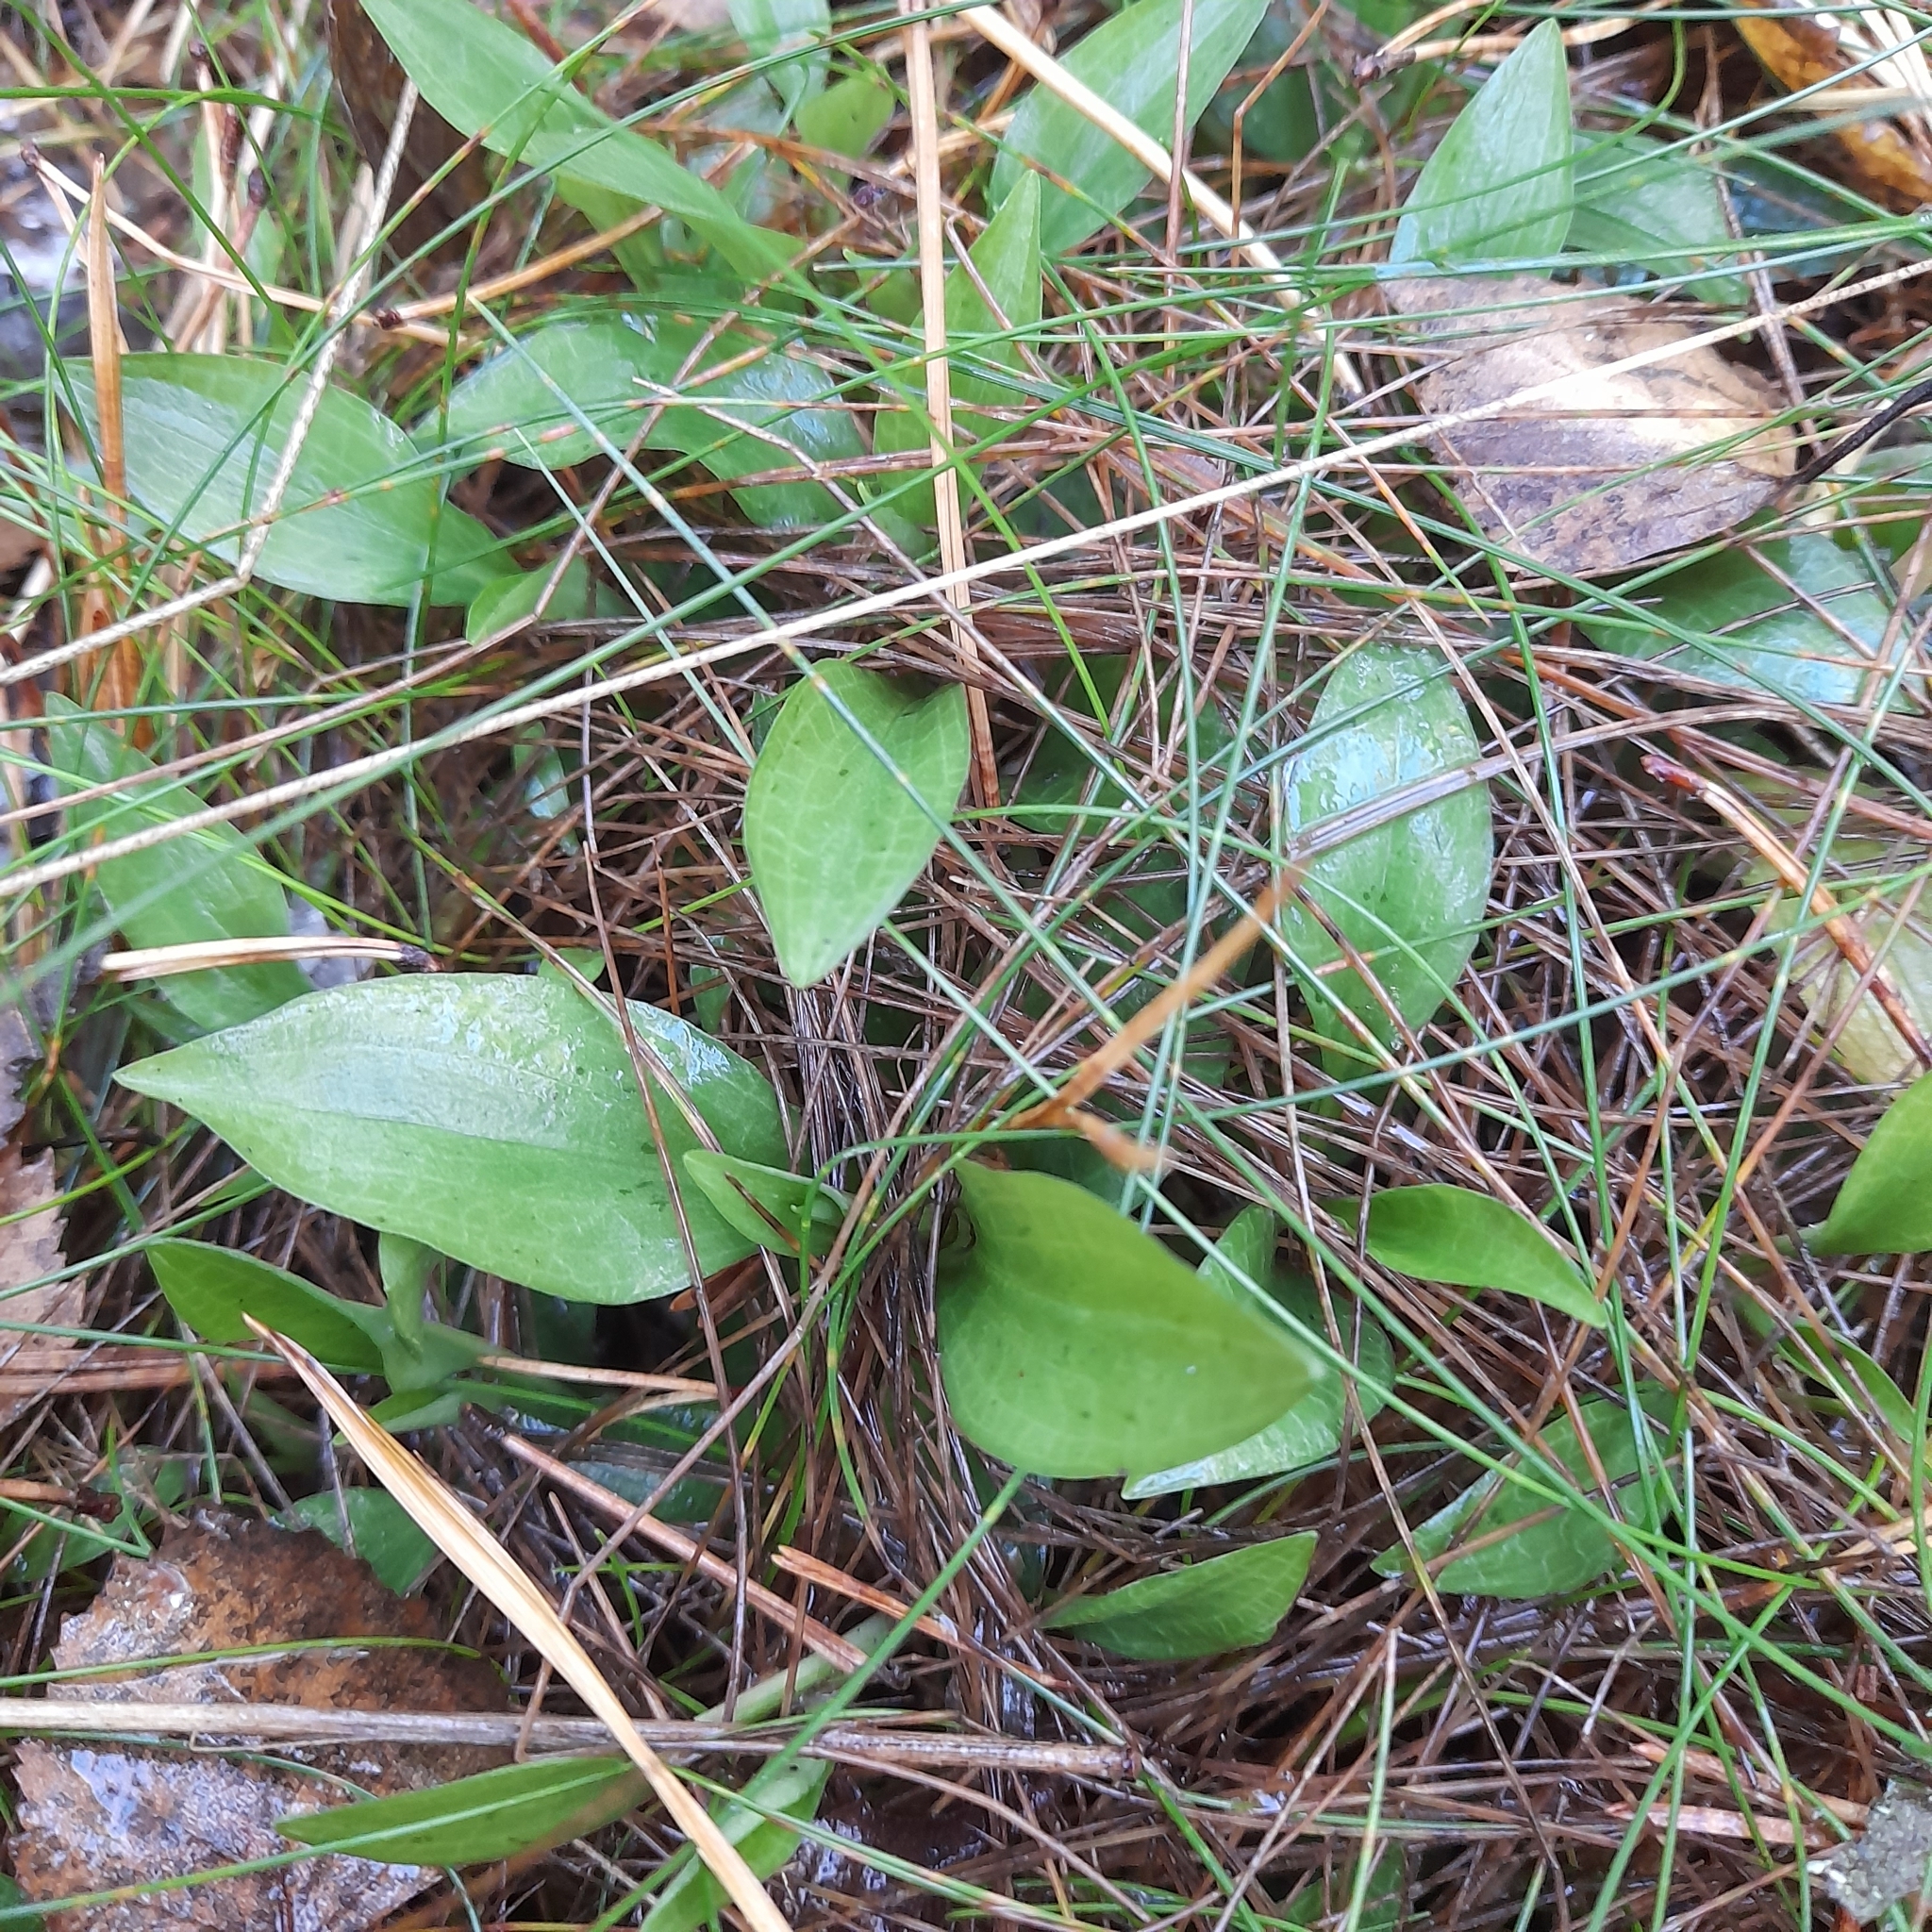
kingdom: Plantae
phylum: Tracheophyta
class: Liliopsida
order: Asparagales
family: Orchidaceae
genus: Goodyera
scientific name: Goodyera repens
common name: Creeping lady's-tresses
